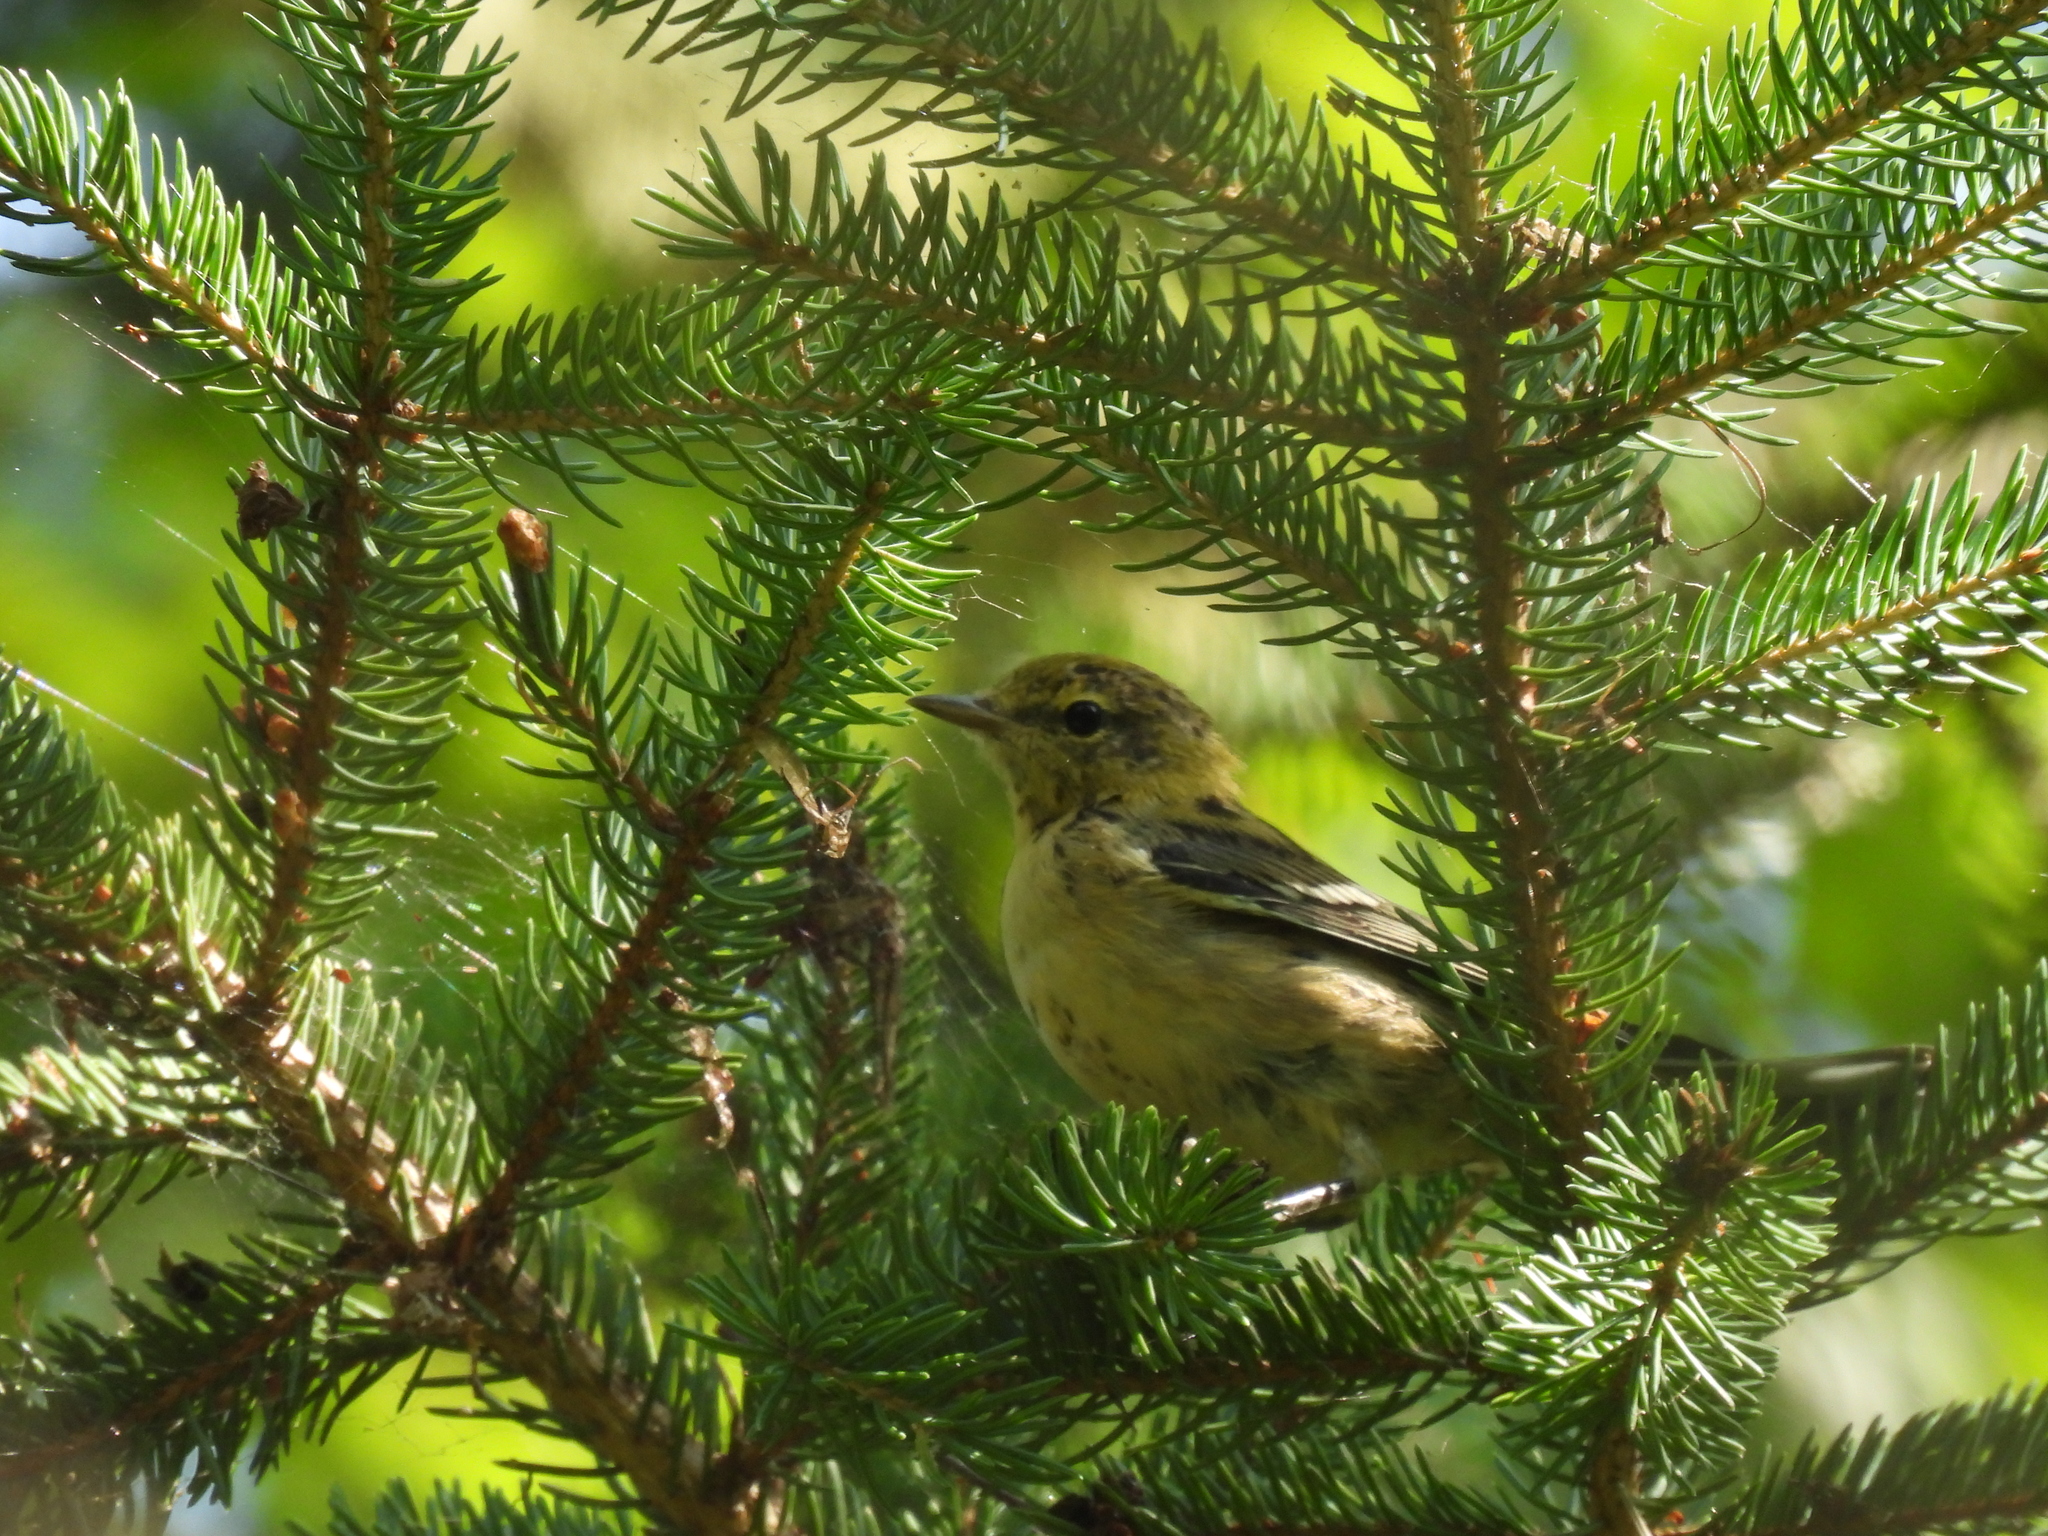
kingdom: Animalia
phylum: Chordata
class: Aves
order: Passeriformes
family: Parulidae
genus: Setophaga
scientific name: Setophaga castanea
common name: Bay-breasted warbler
